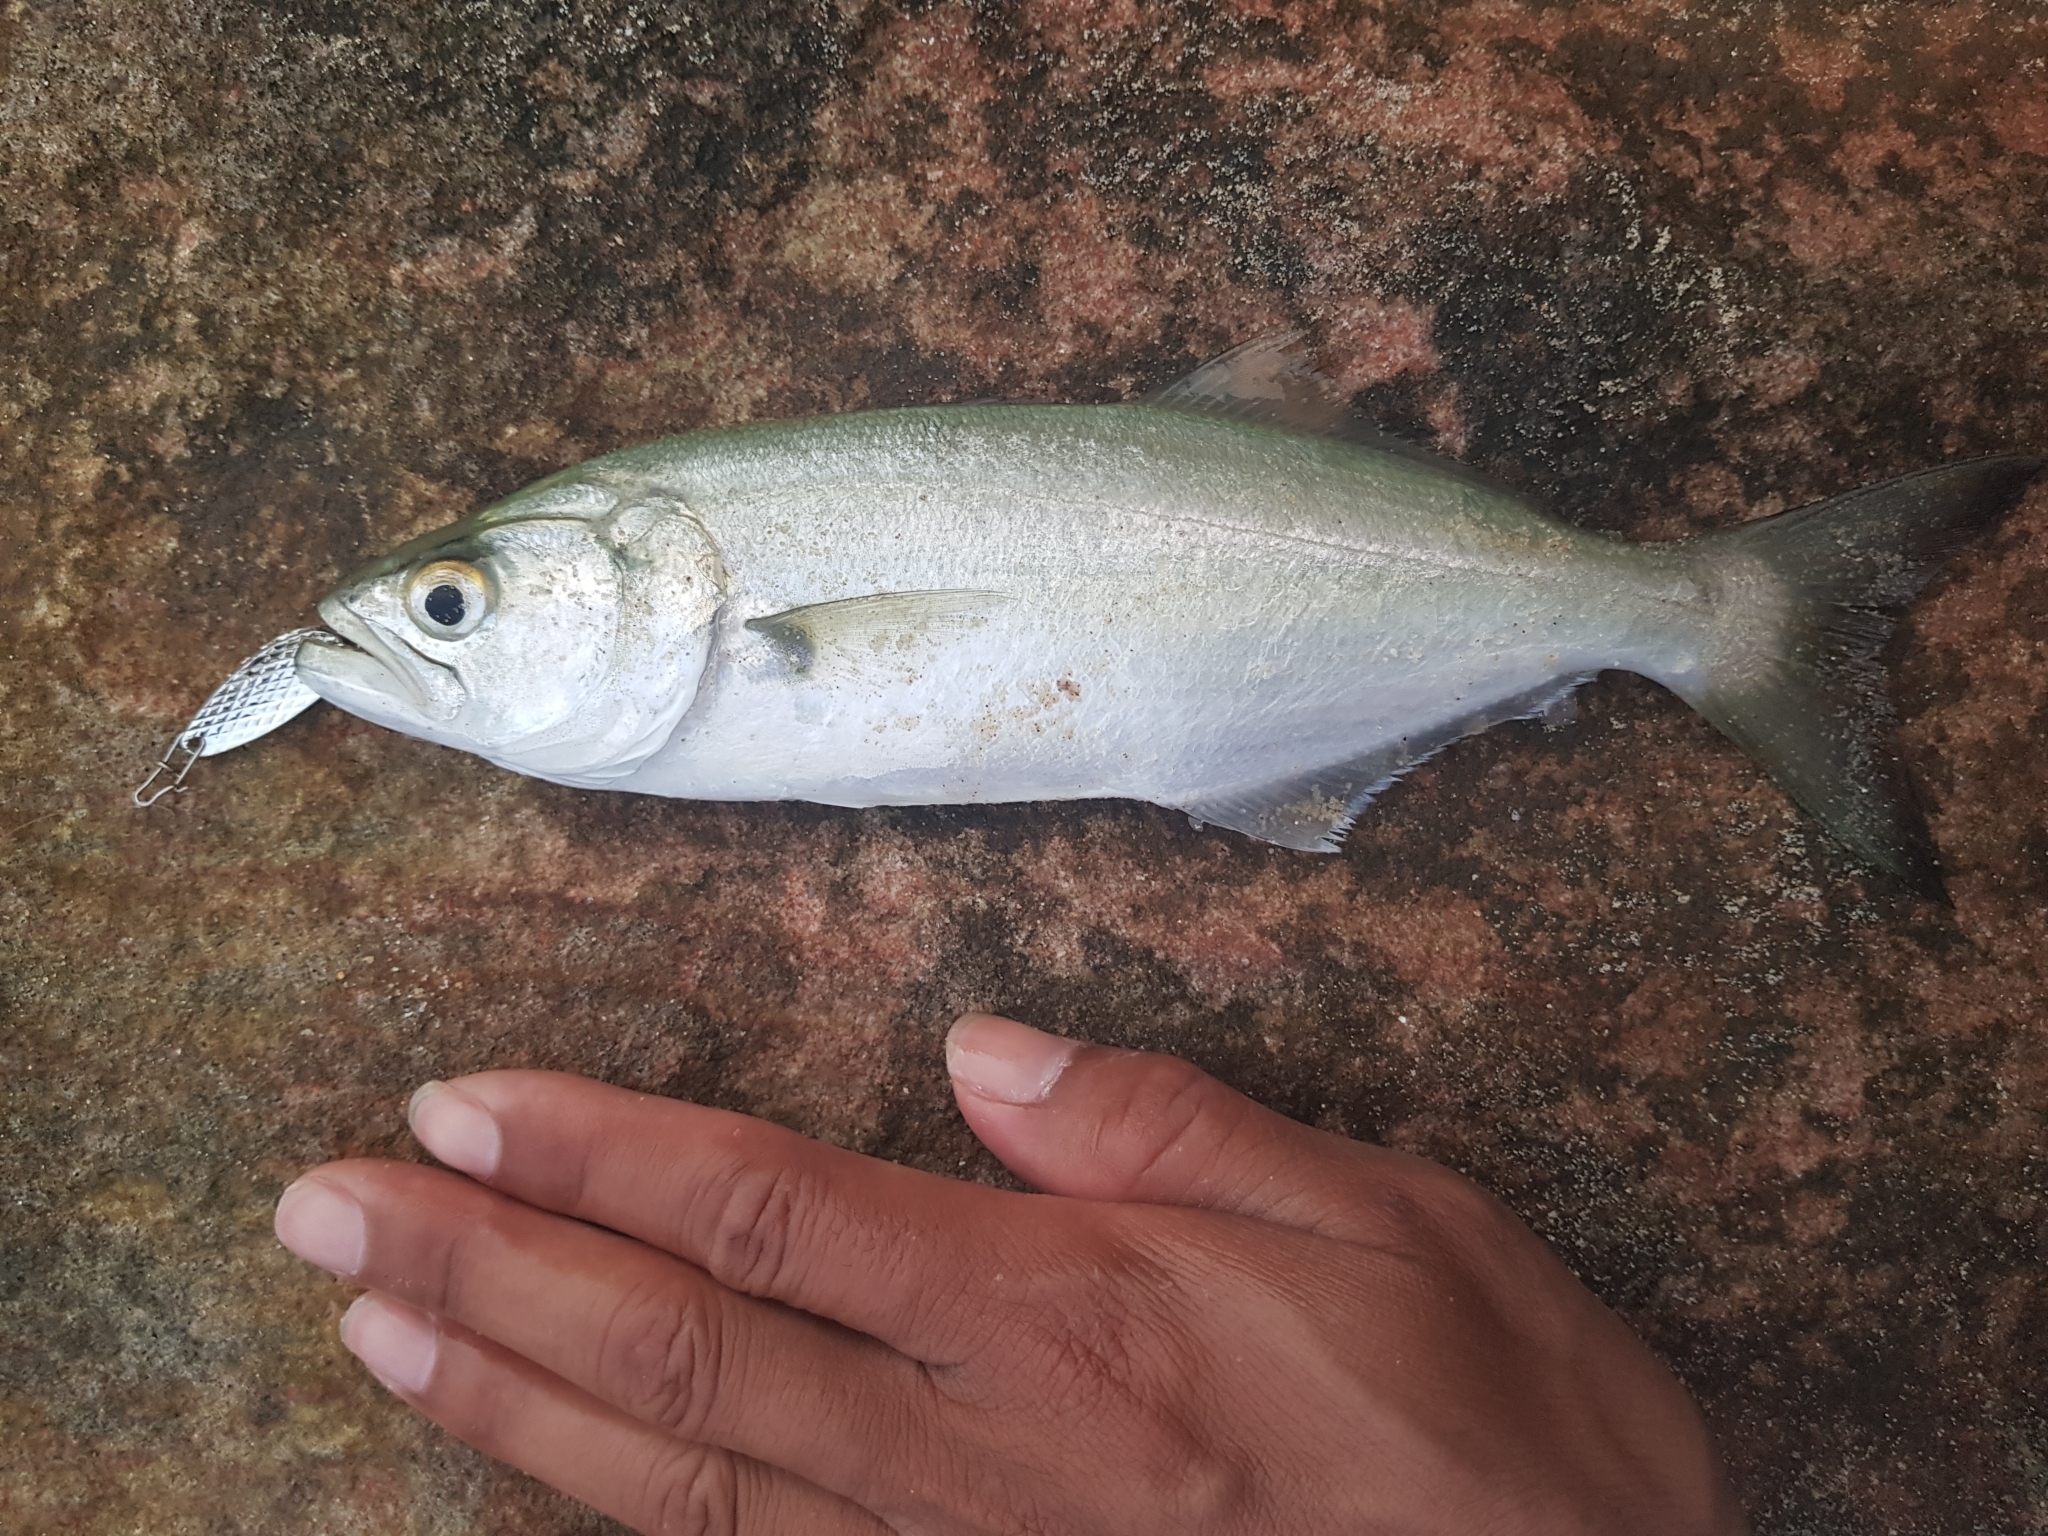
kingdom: Animalia
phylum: Chordata
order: Perciformes
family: Pomatomidae
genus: Pomatomus
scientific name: Pomatomus saltatrix
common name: Bluefish
